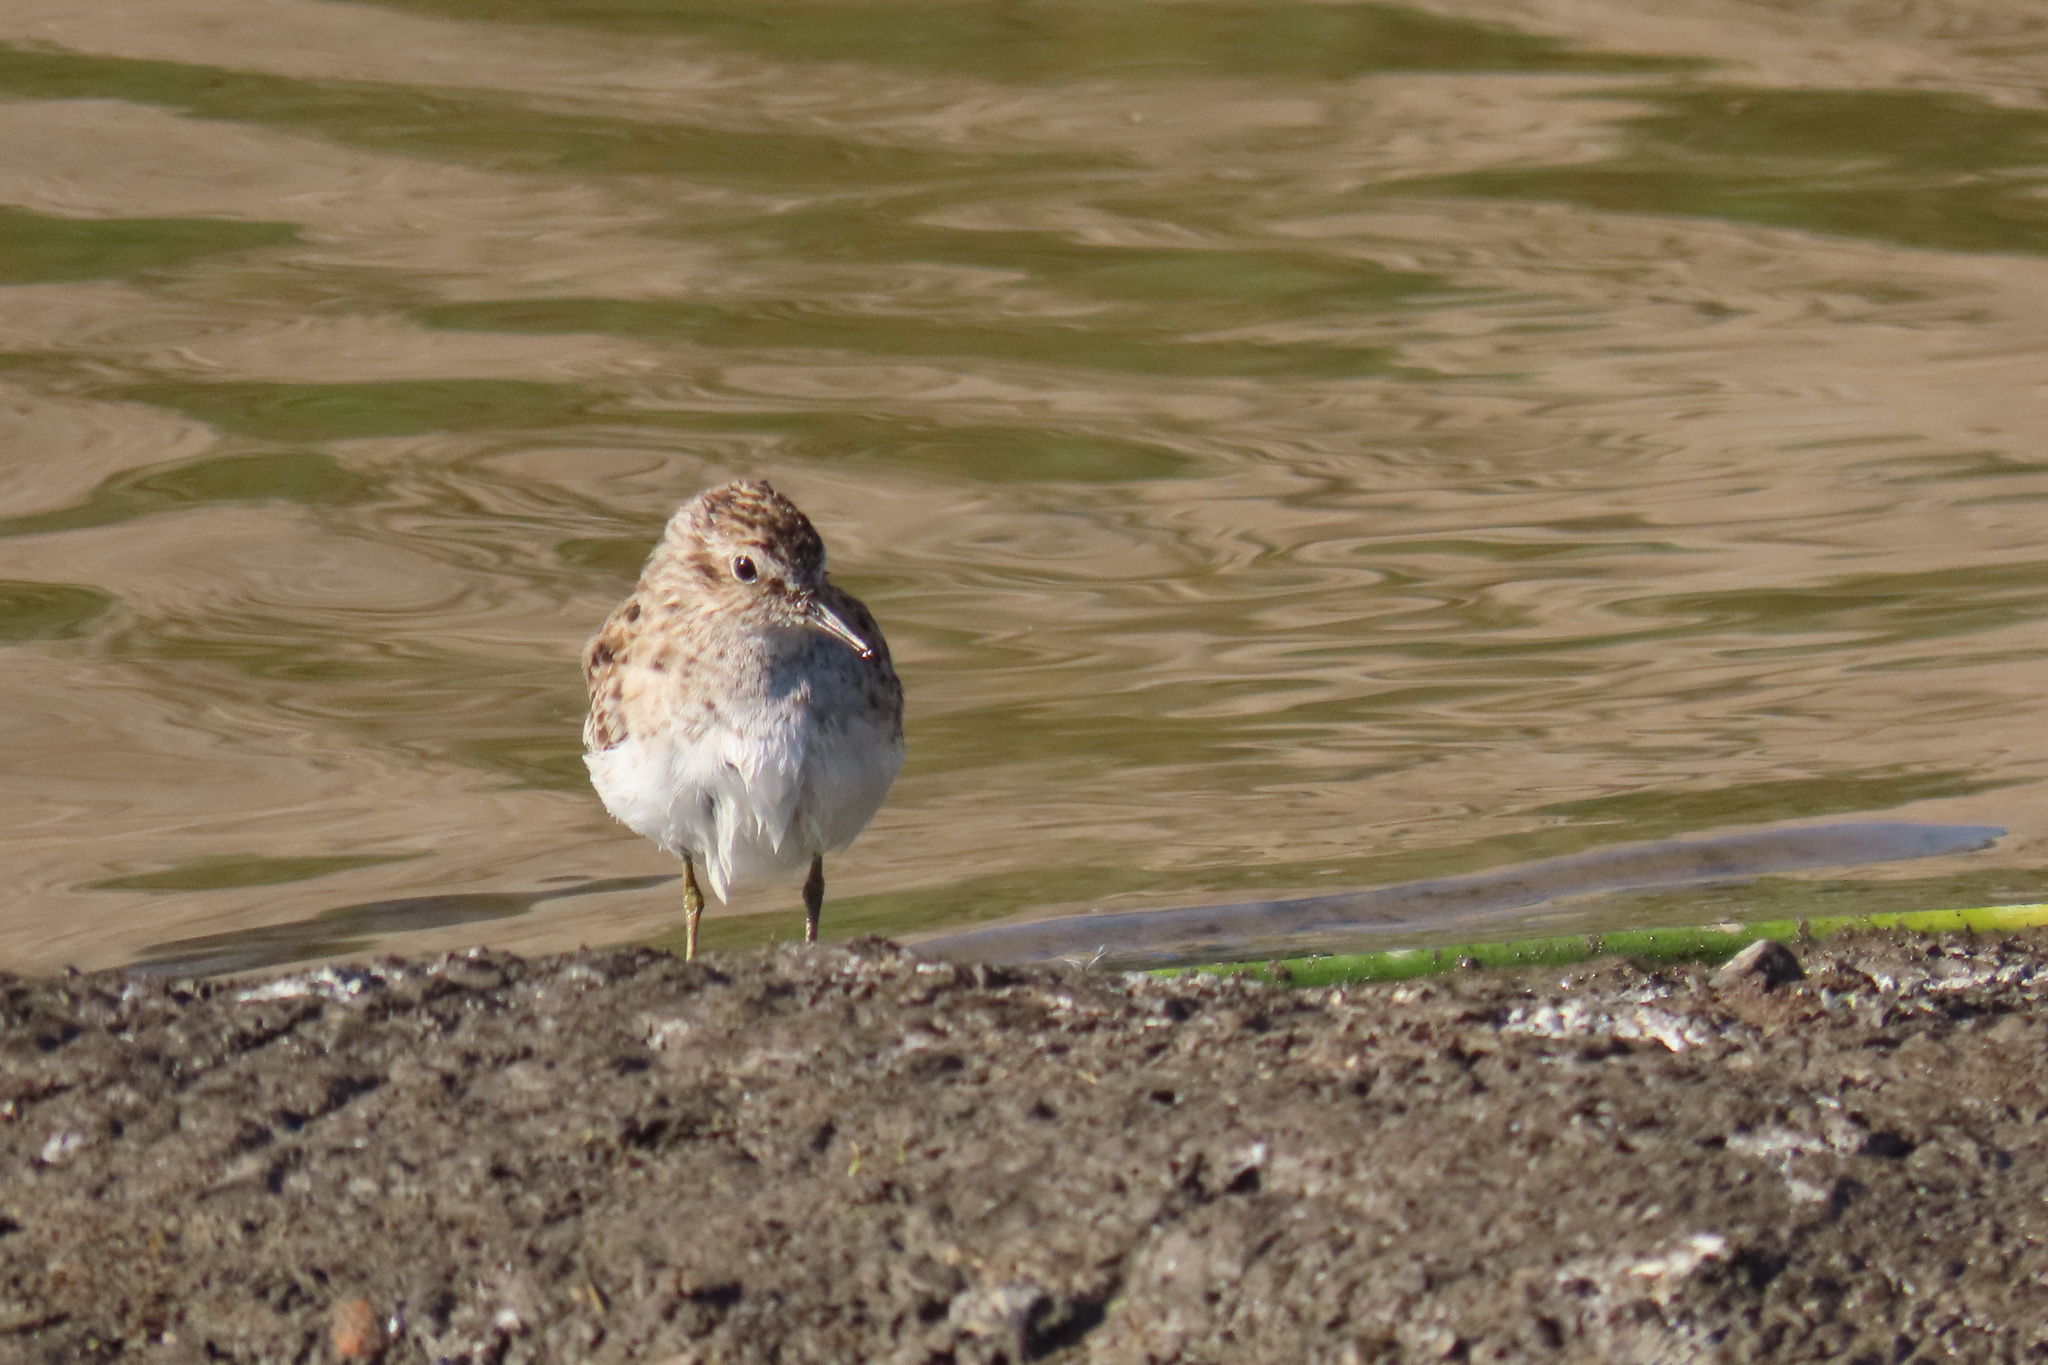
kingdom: Animalia
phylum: Chordata
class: Aves
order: Charadriiformes
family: Scolopacidae
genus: Calidris
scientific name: Calidris minutilla
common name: Least sandpiper
